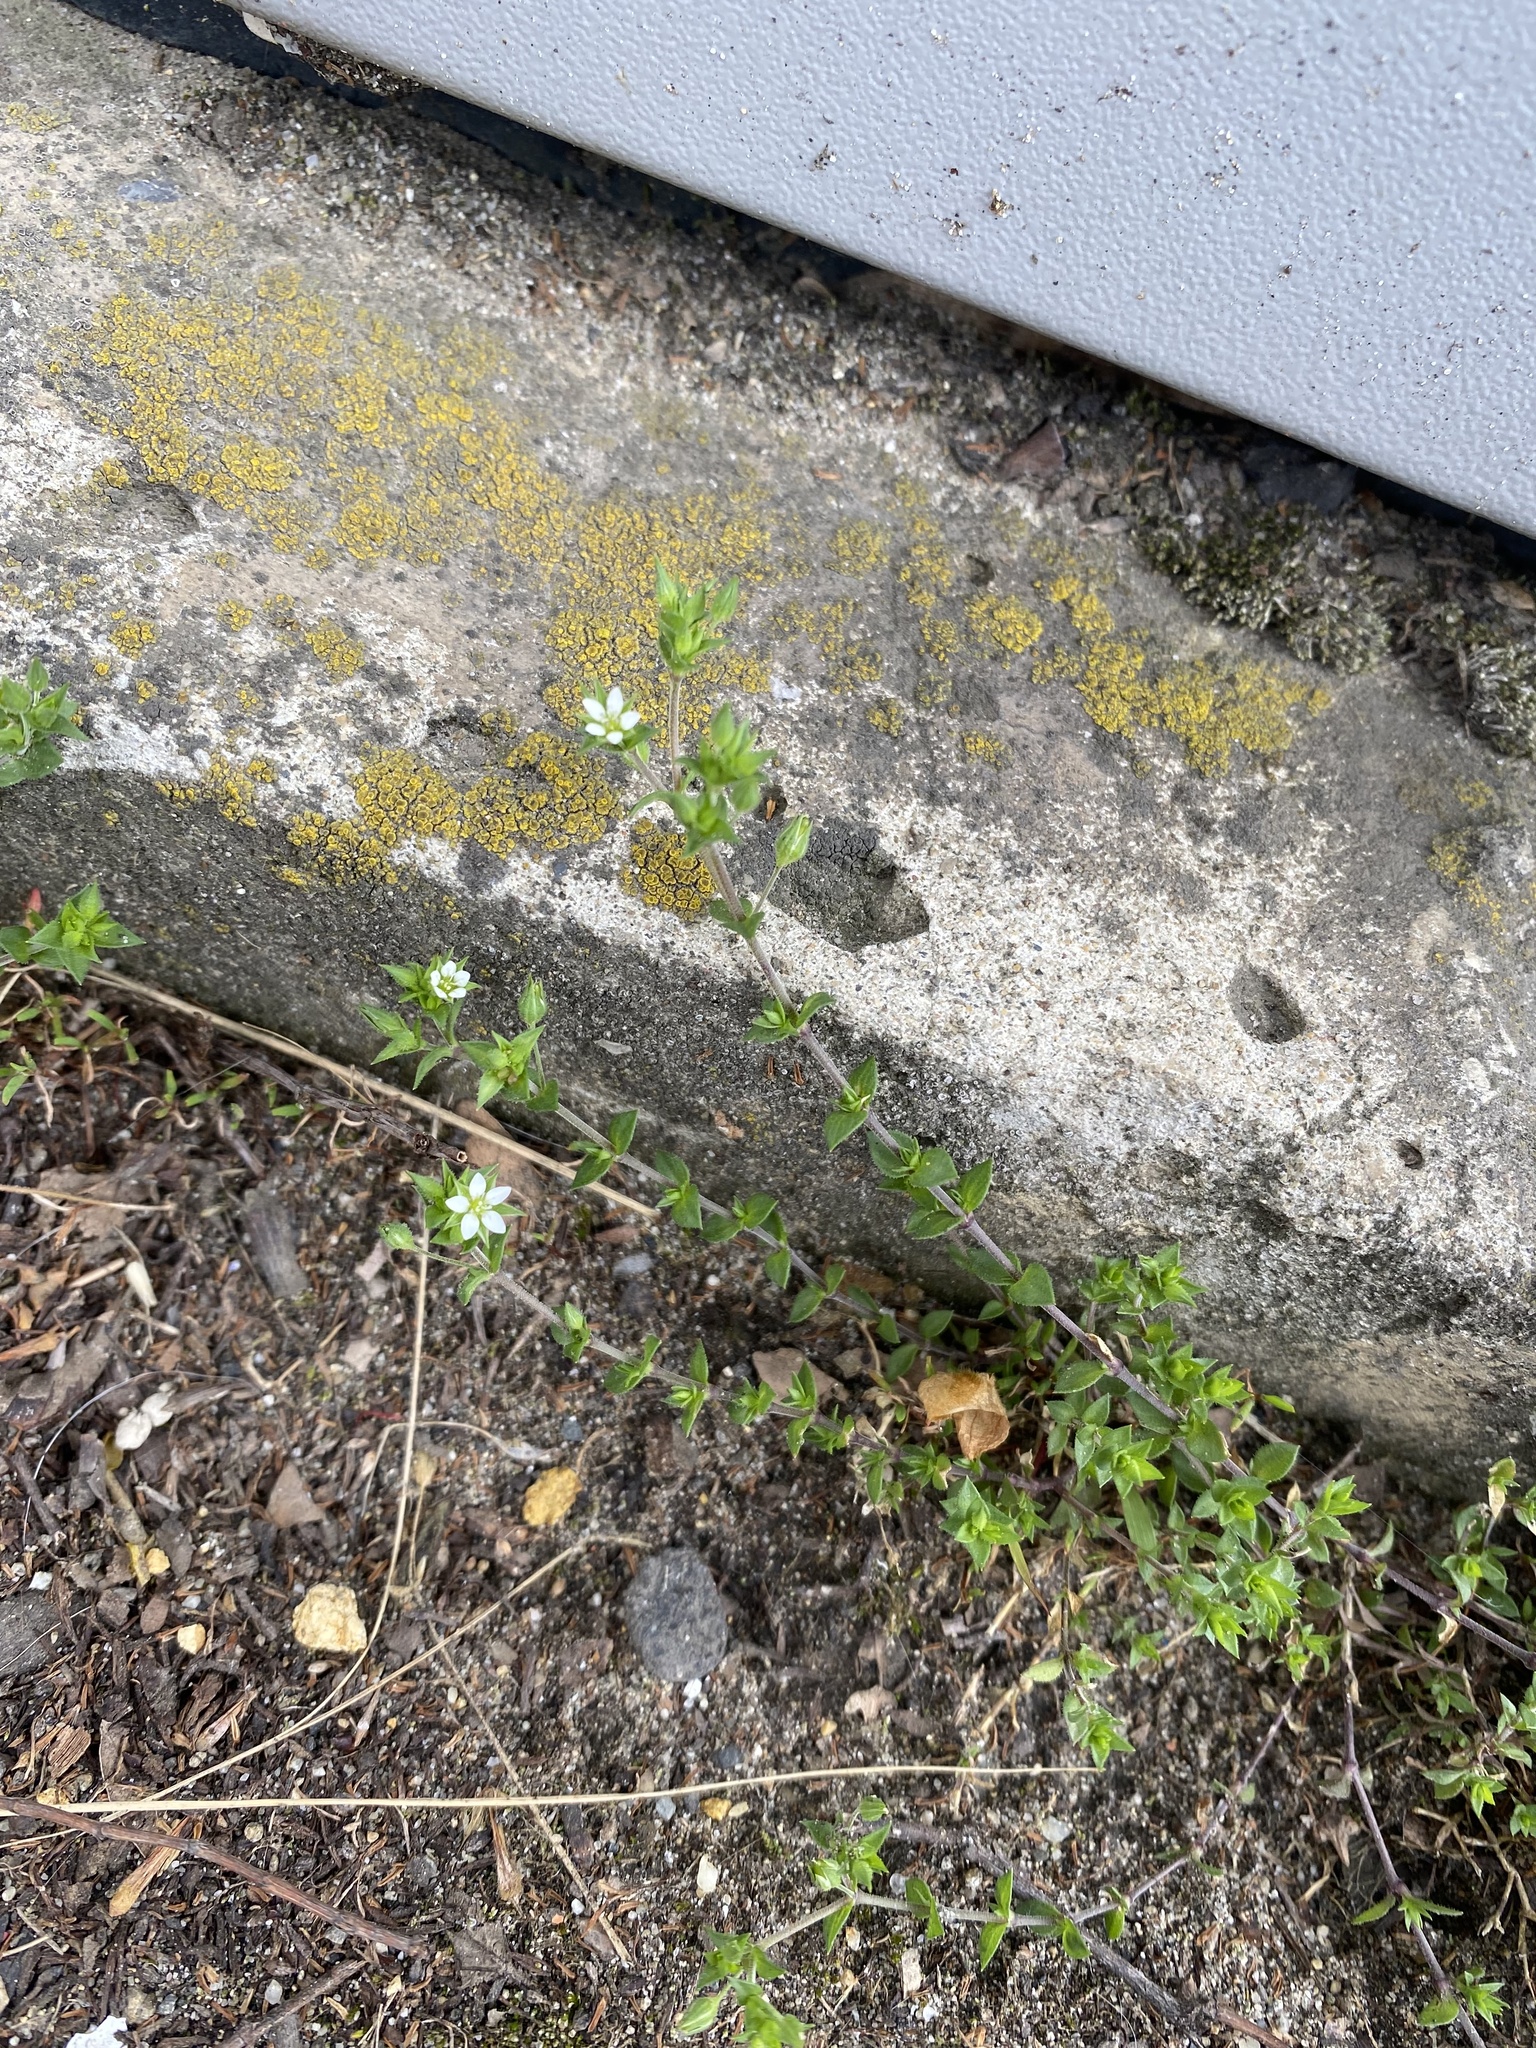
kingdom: Plantae
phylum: Tracheophyta
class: Magnoliopsida
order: Caryophyllales
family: Caryophyllaceae
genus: Arenaria
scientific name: Arenaria serpyllifolia
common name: Thyme-leaved sandwort
